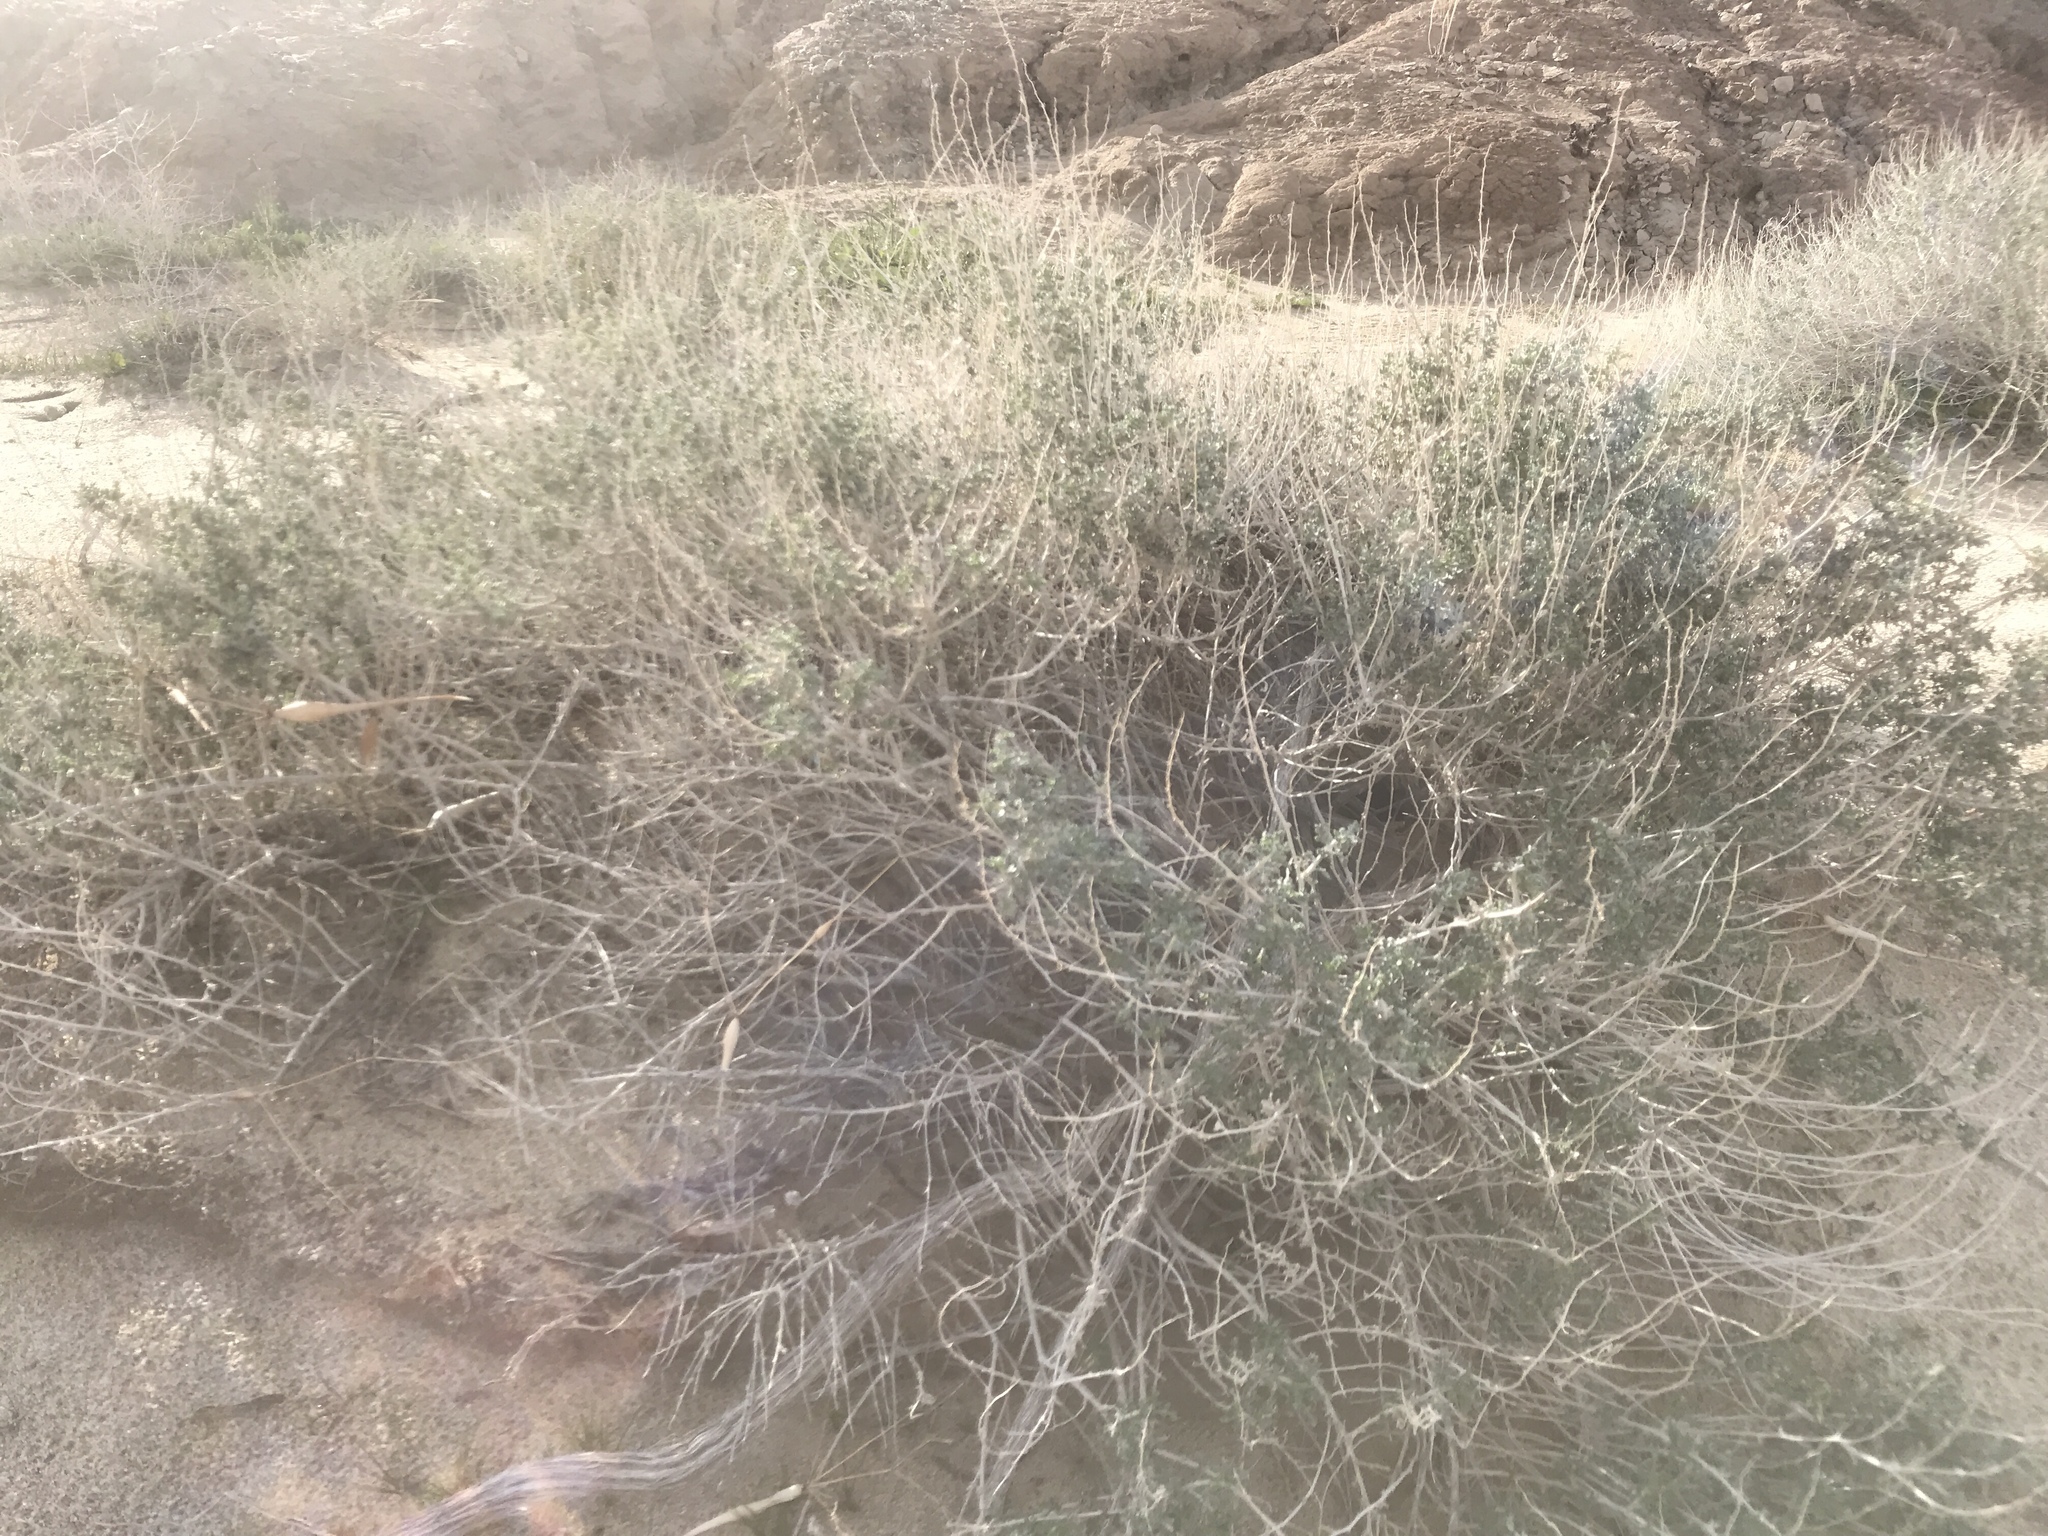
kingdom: Plantae
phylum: Tracheophyta
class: Magnoliopsida
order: Asterales
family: Asteraceae
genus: Ambrosia
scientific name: Ambrosia dumosa
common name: Bur-sage
